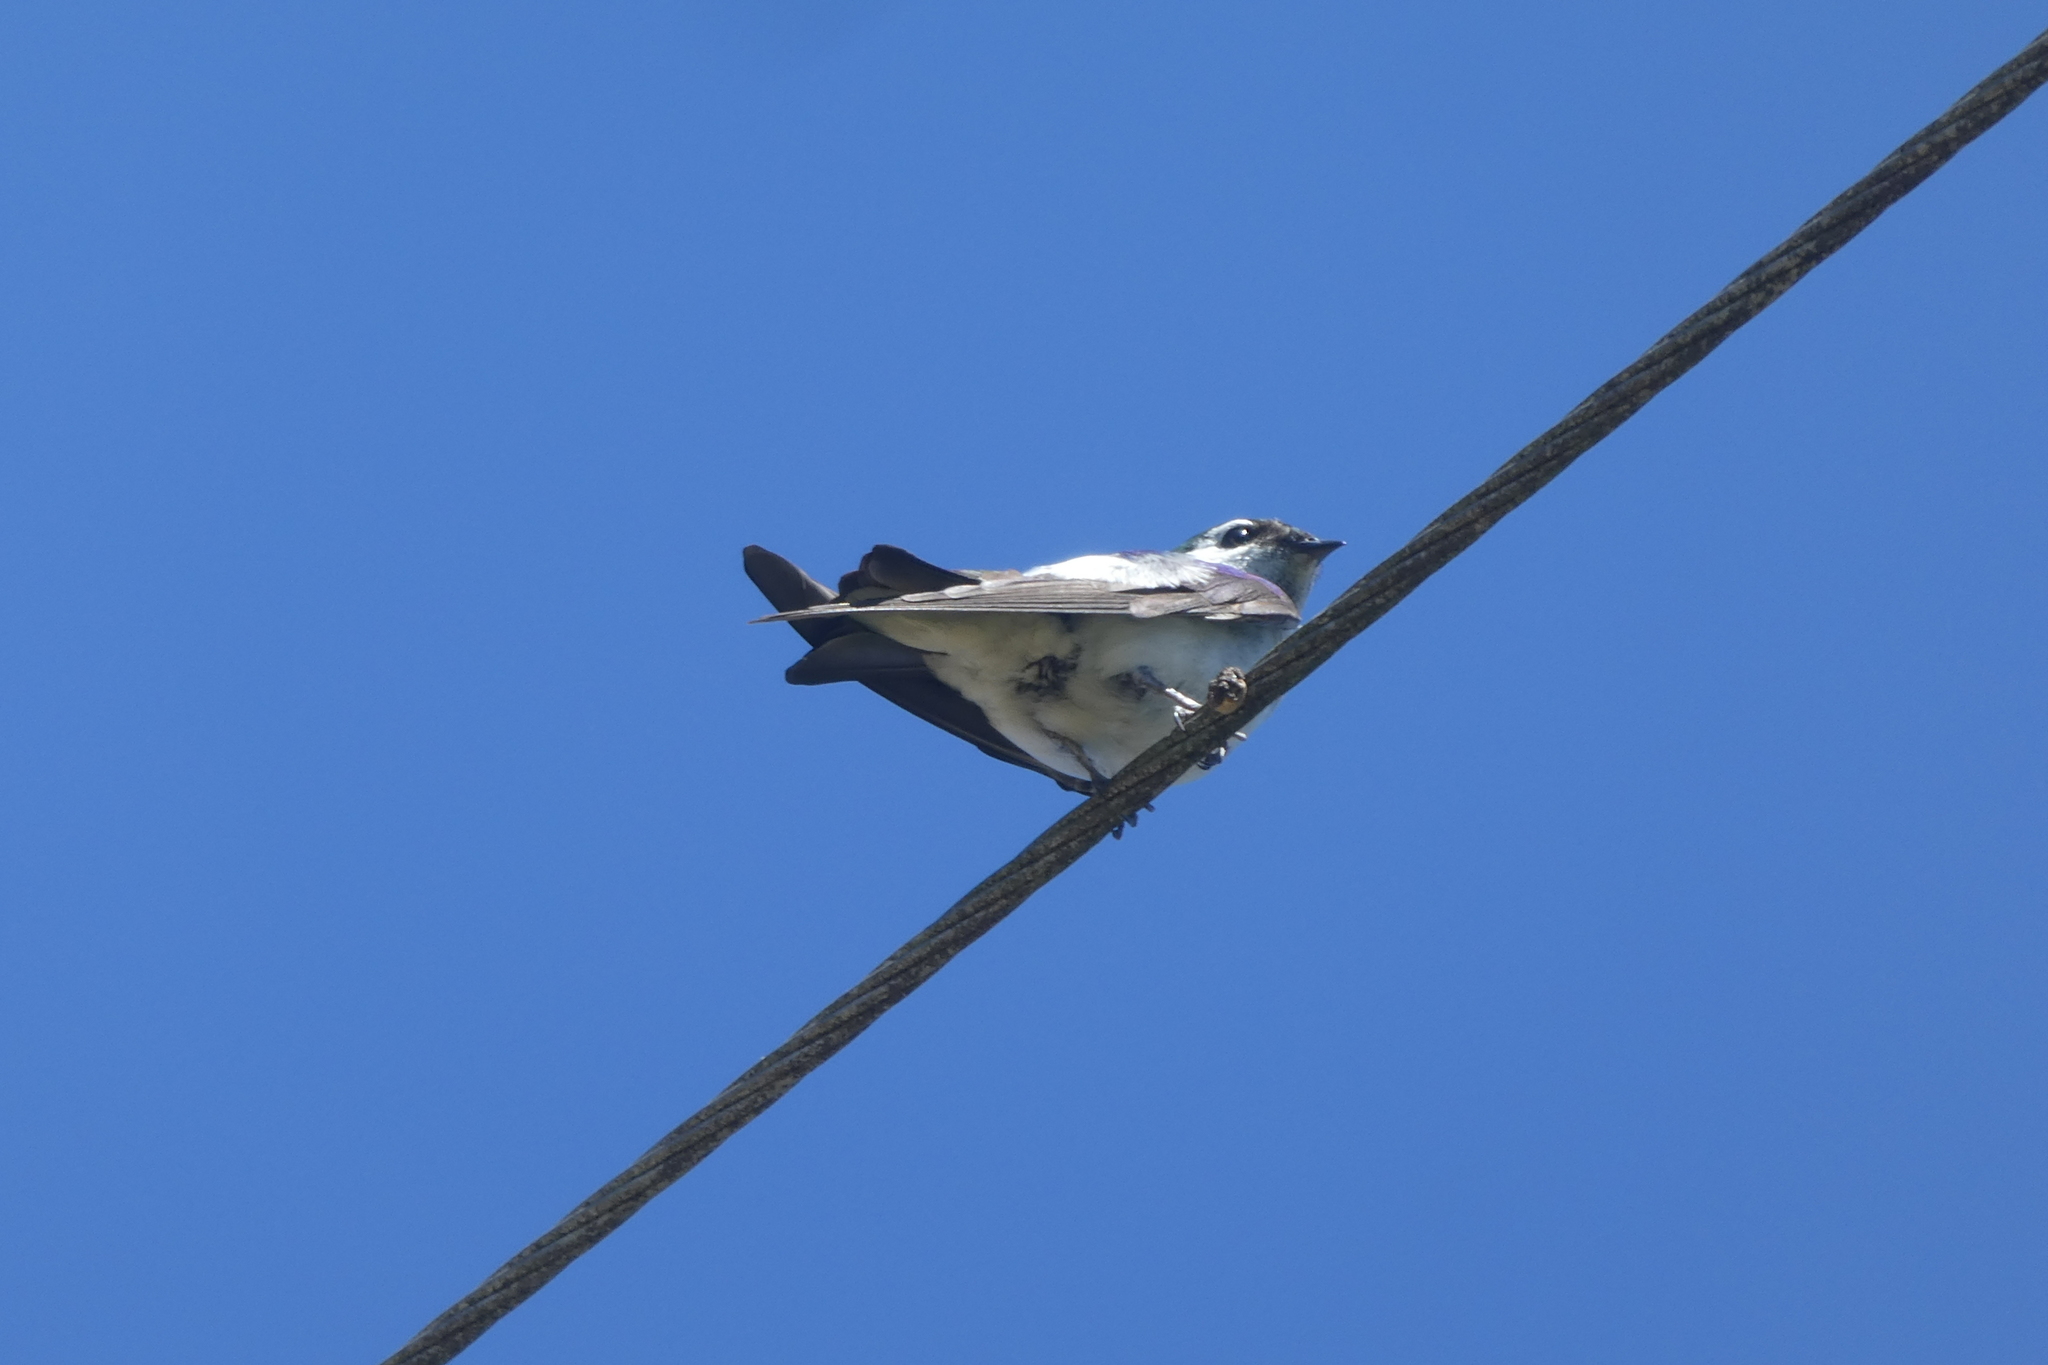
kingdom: Animalia
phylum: Chordata
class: Aves
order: Passeriformes
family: Hirundinidae
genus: Tachycineta
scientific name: Tachycineta thalassina
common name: Violet-green swallow
